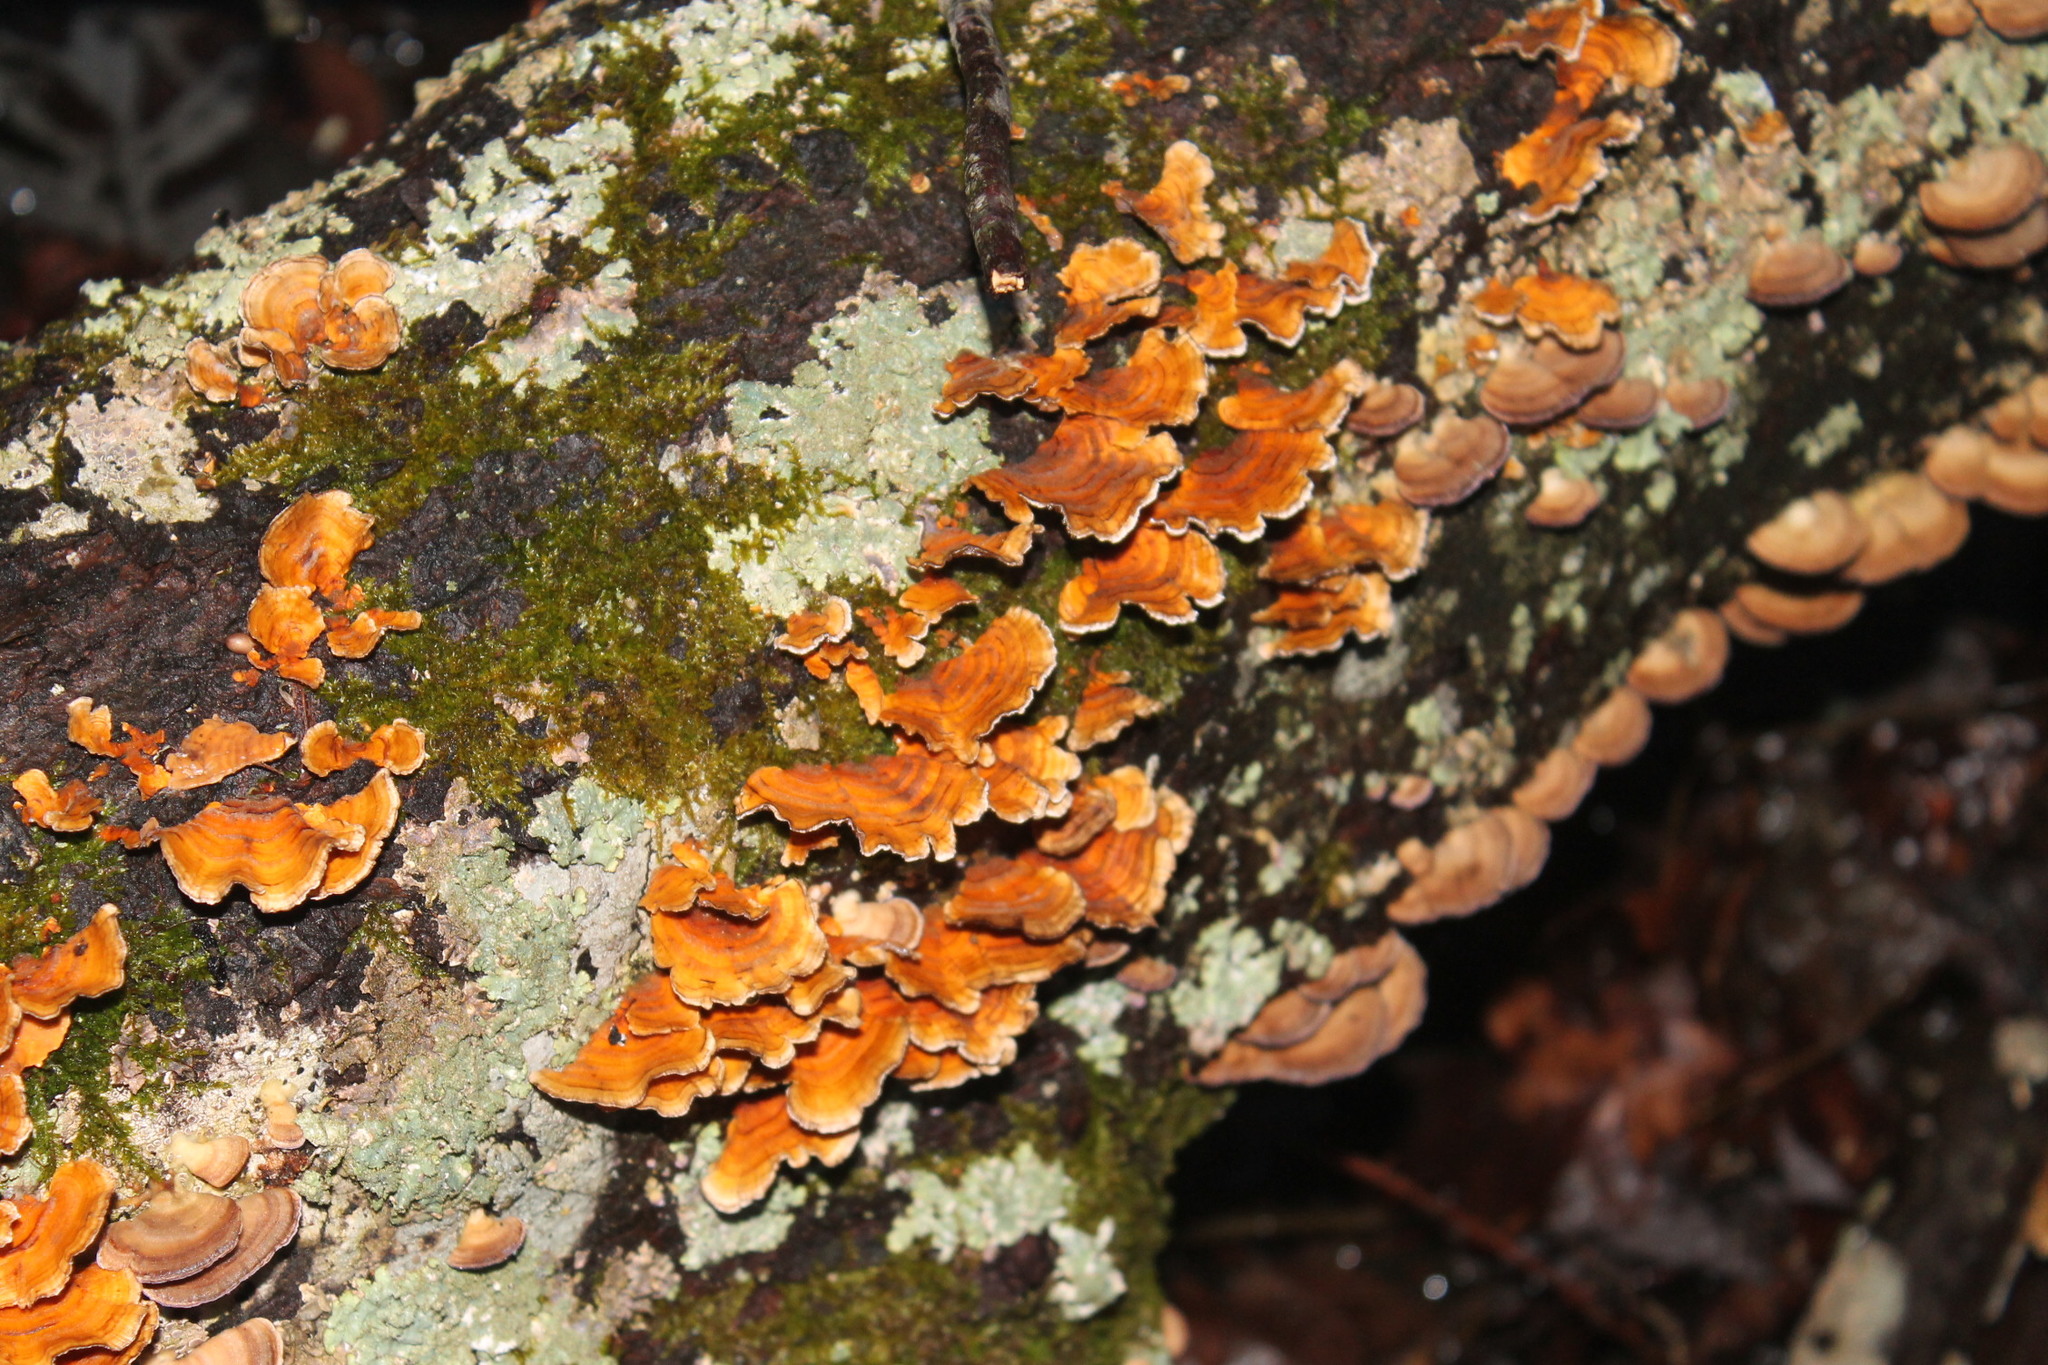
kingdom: Fungi
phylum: Basidiomycota
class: Agaricomycetes
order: Russulales
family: Stereaceae
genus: Stereum
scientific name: Stereum complicatum
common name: Crowded parchment
